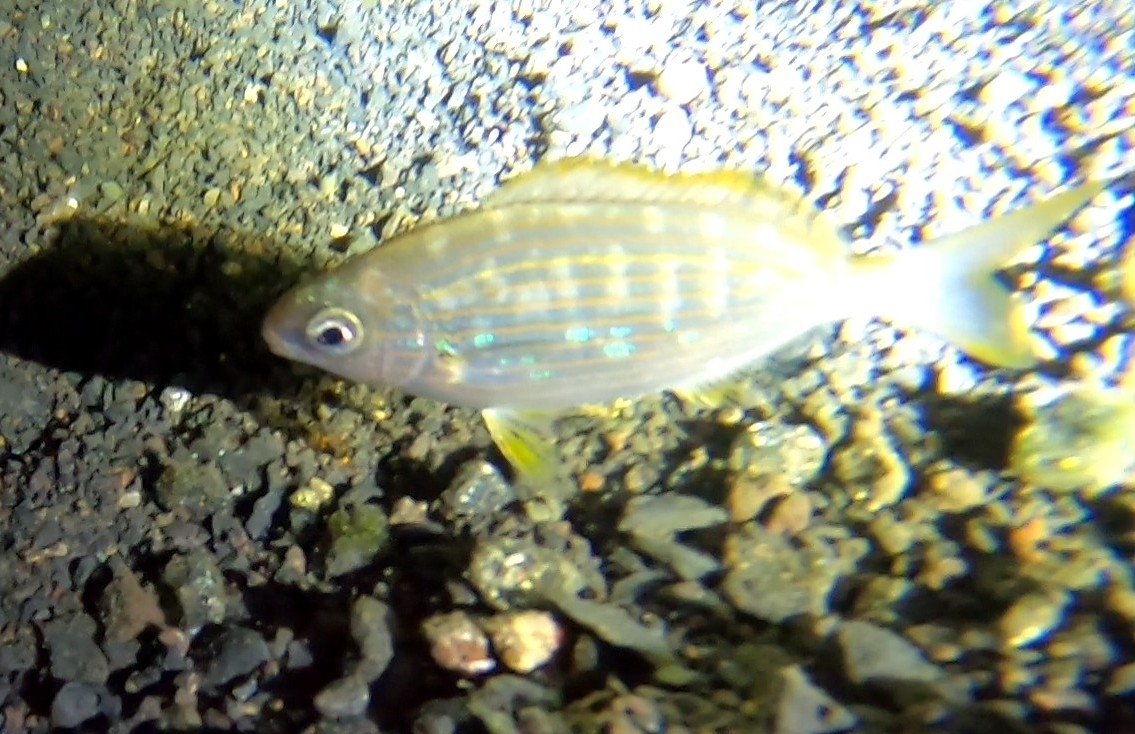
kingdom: Animalia
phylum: Chordata
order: Perciformes
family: Sparidae
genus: Sarpa
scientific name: Sarpa salpa
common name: Salema
